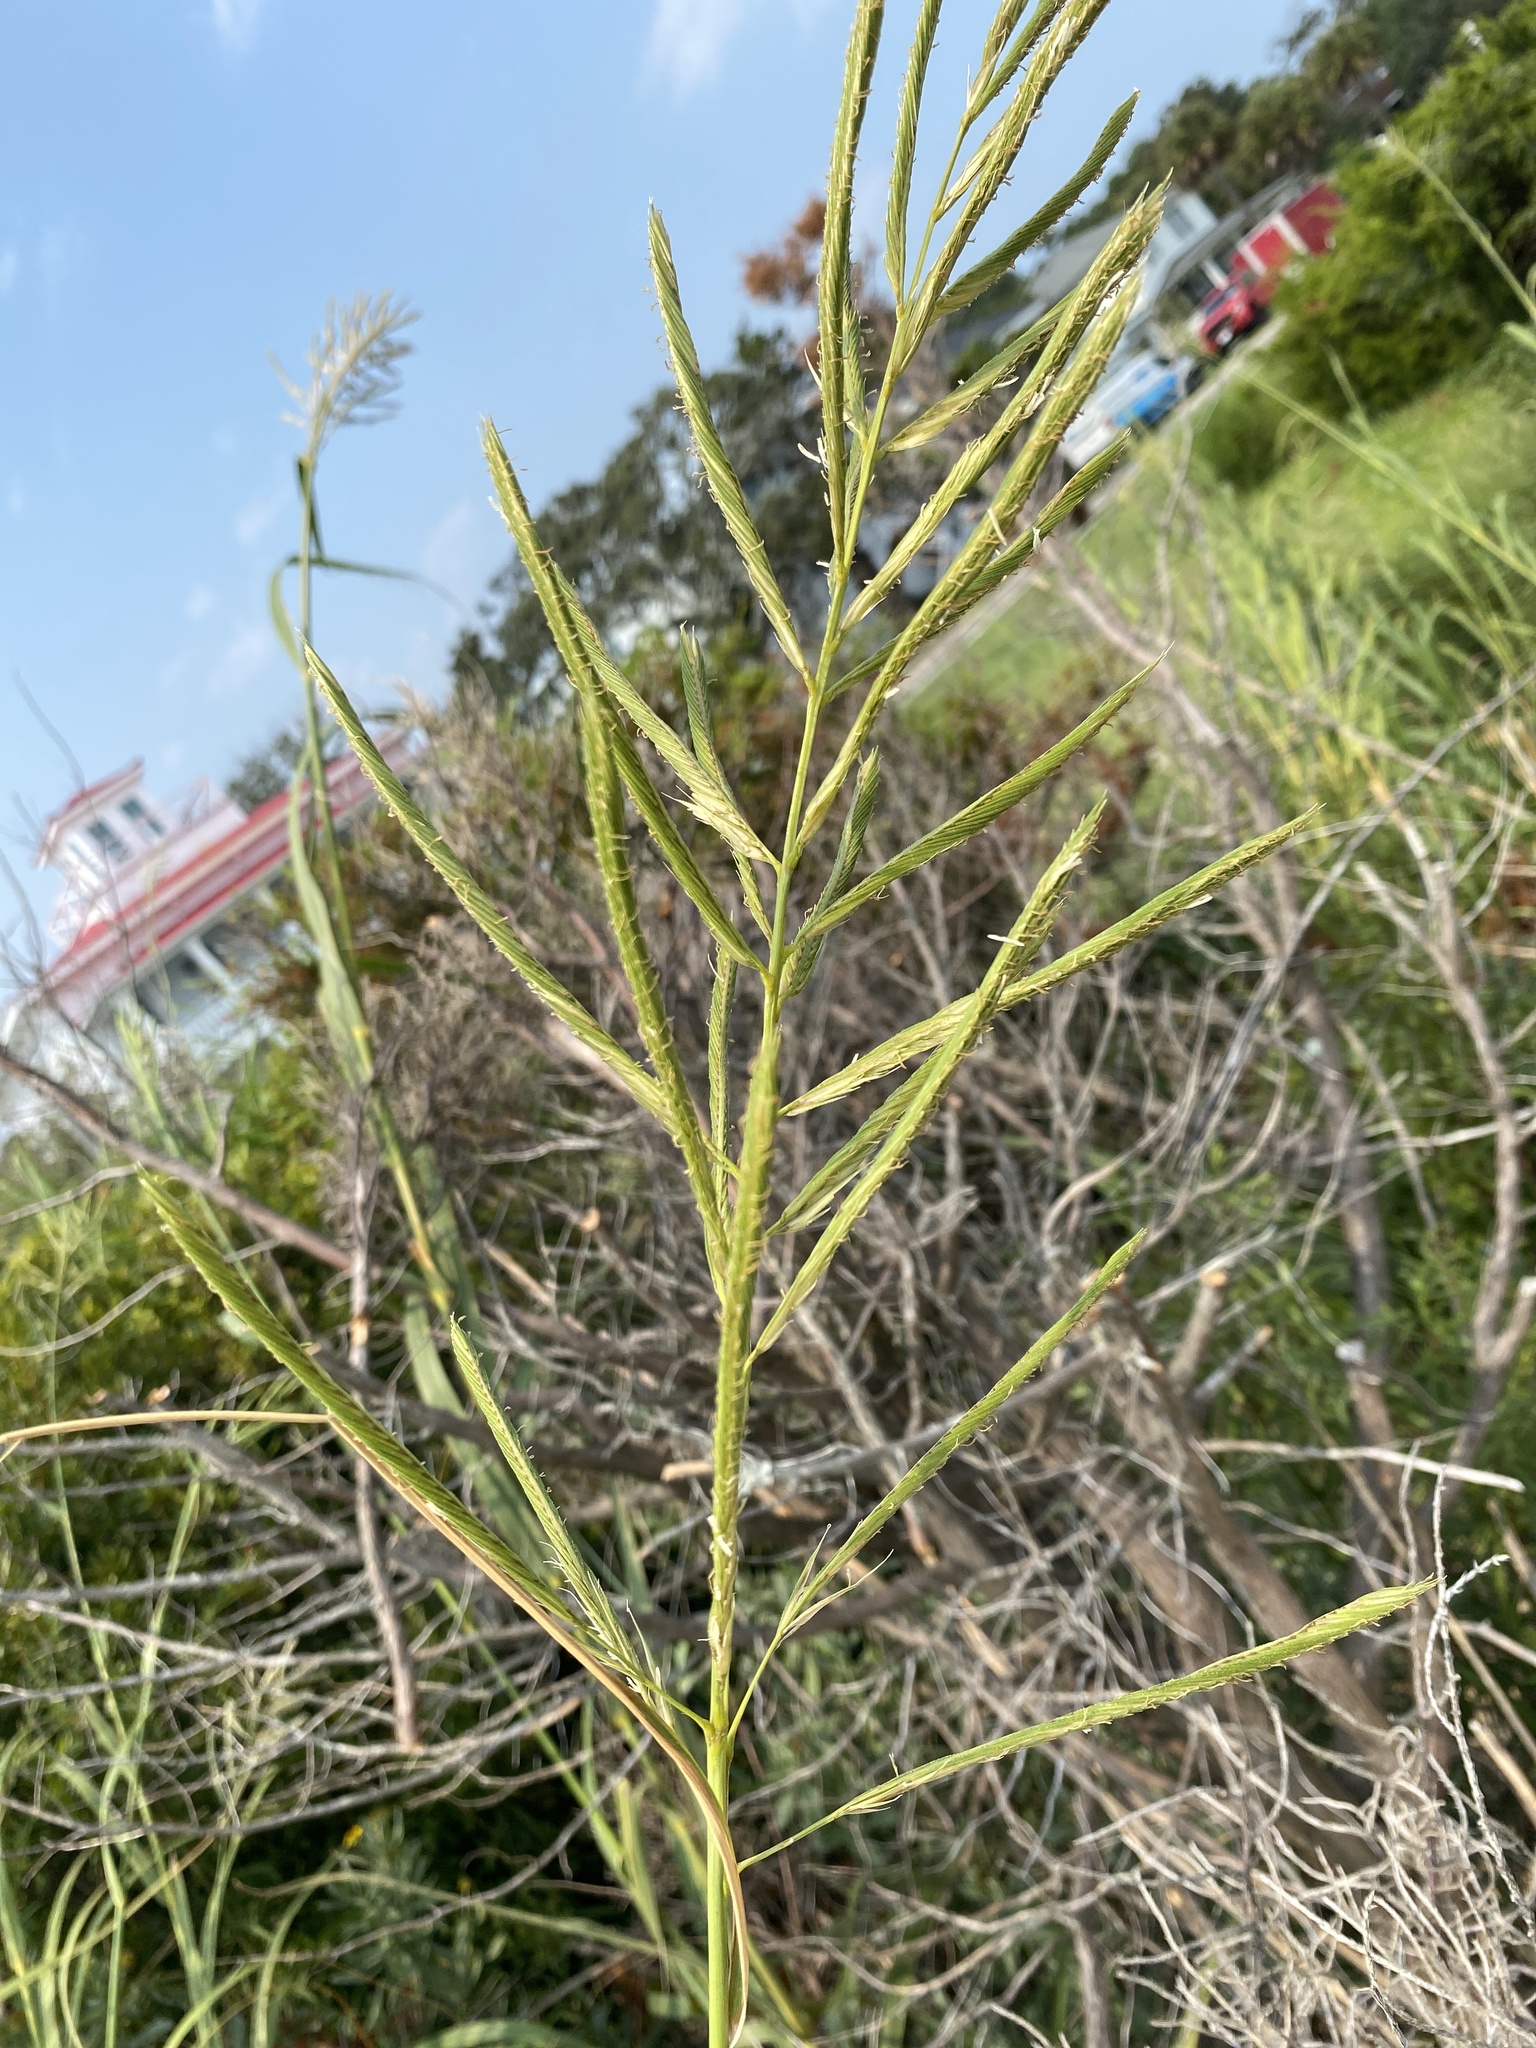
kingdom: Plantae
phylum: Tracheophyta
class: Liliopsida
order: Poales
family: Poaceae
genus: Sporobolus
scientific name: Sporobolus cynosuroides
